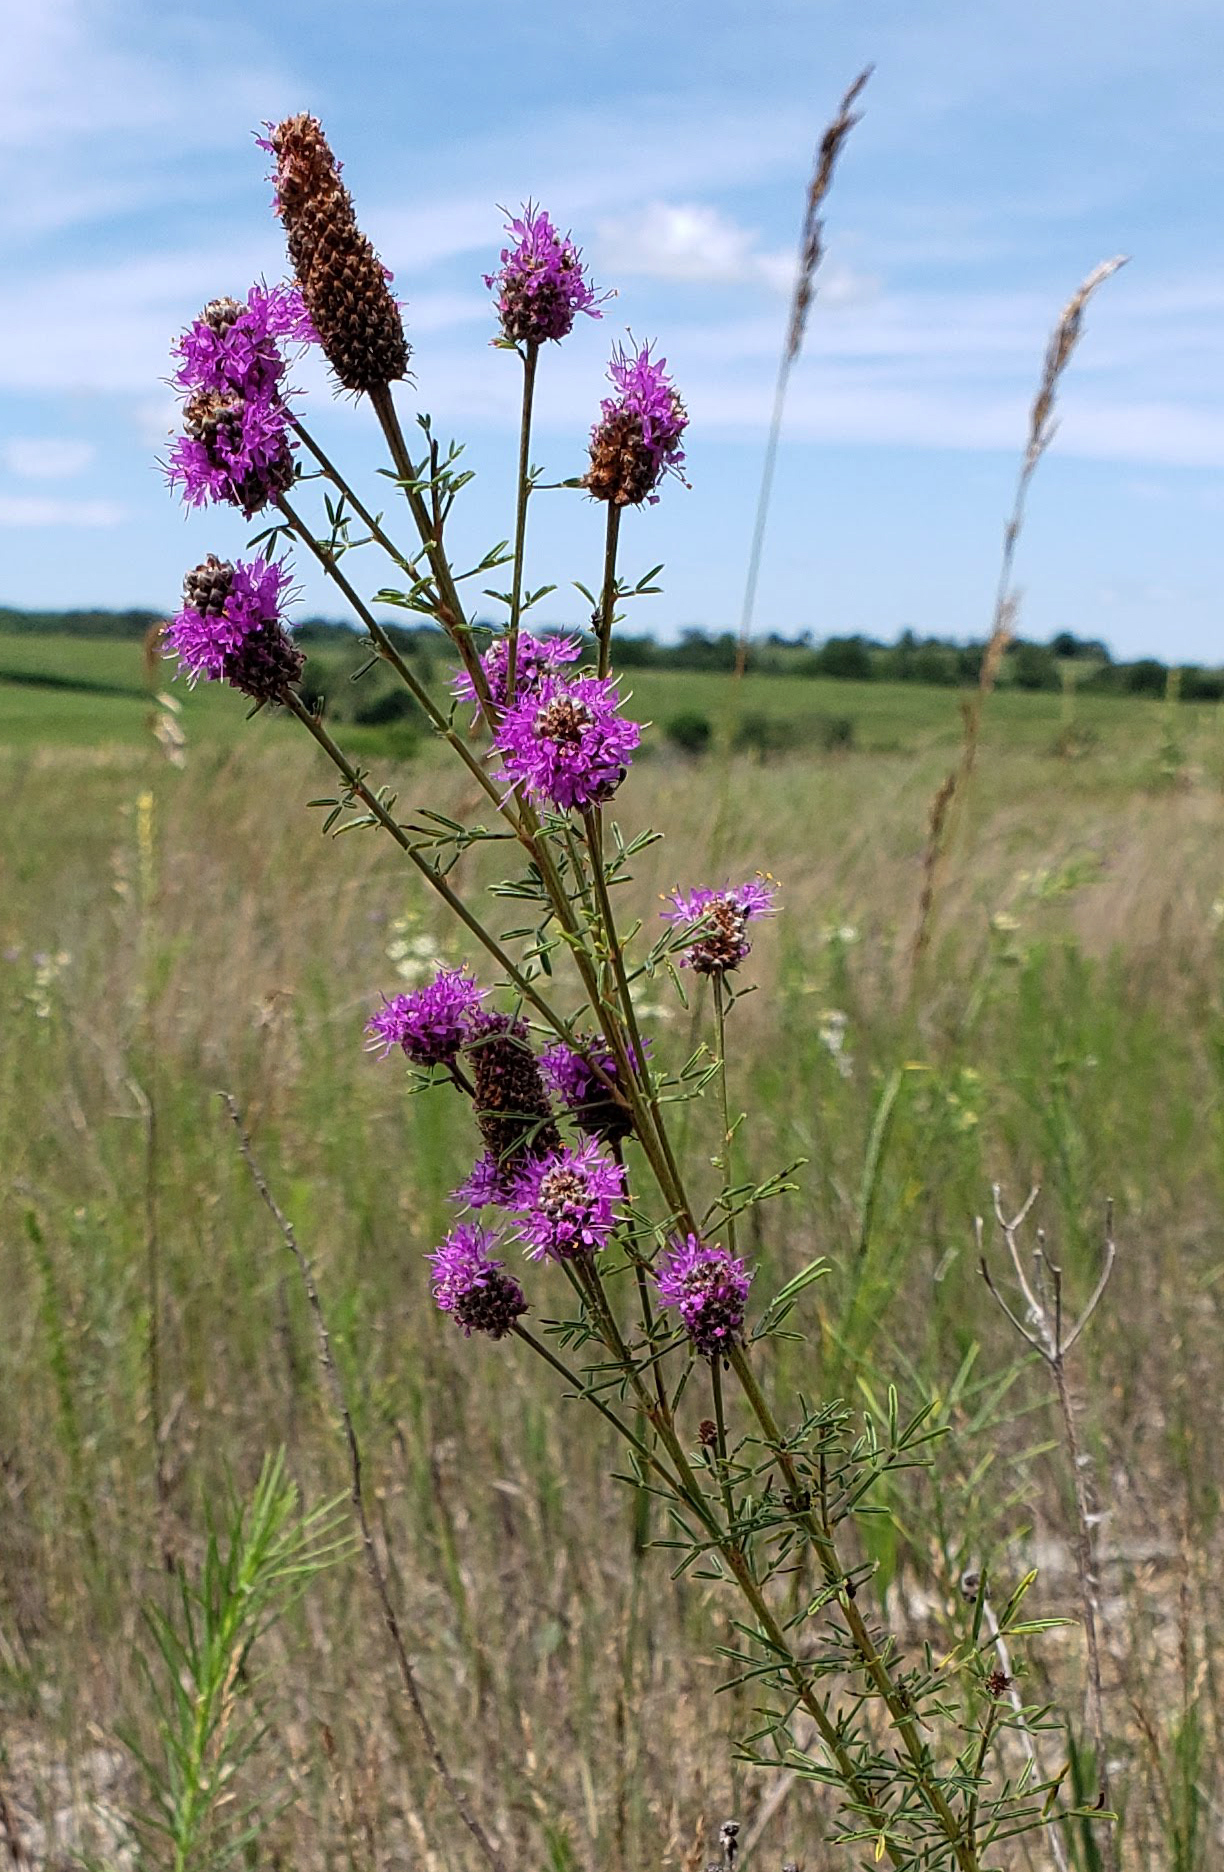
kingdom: Plantae
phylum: Tracheophyta
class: Magnoliopsida
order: Fabales
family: Fabaceae
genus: Dalea
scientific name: Dalea purpurea
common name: Purple prairie-clover
